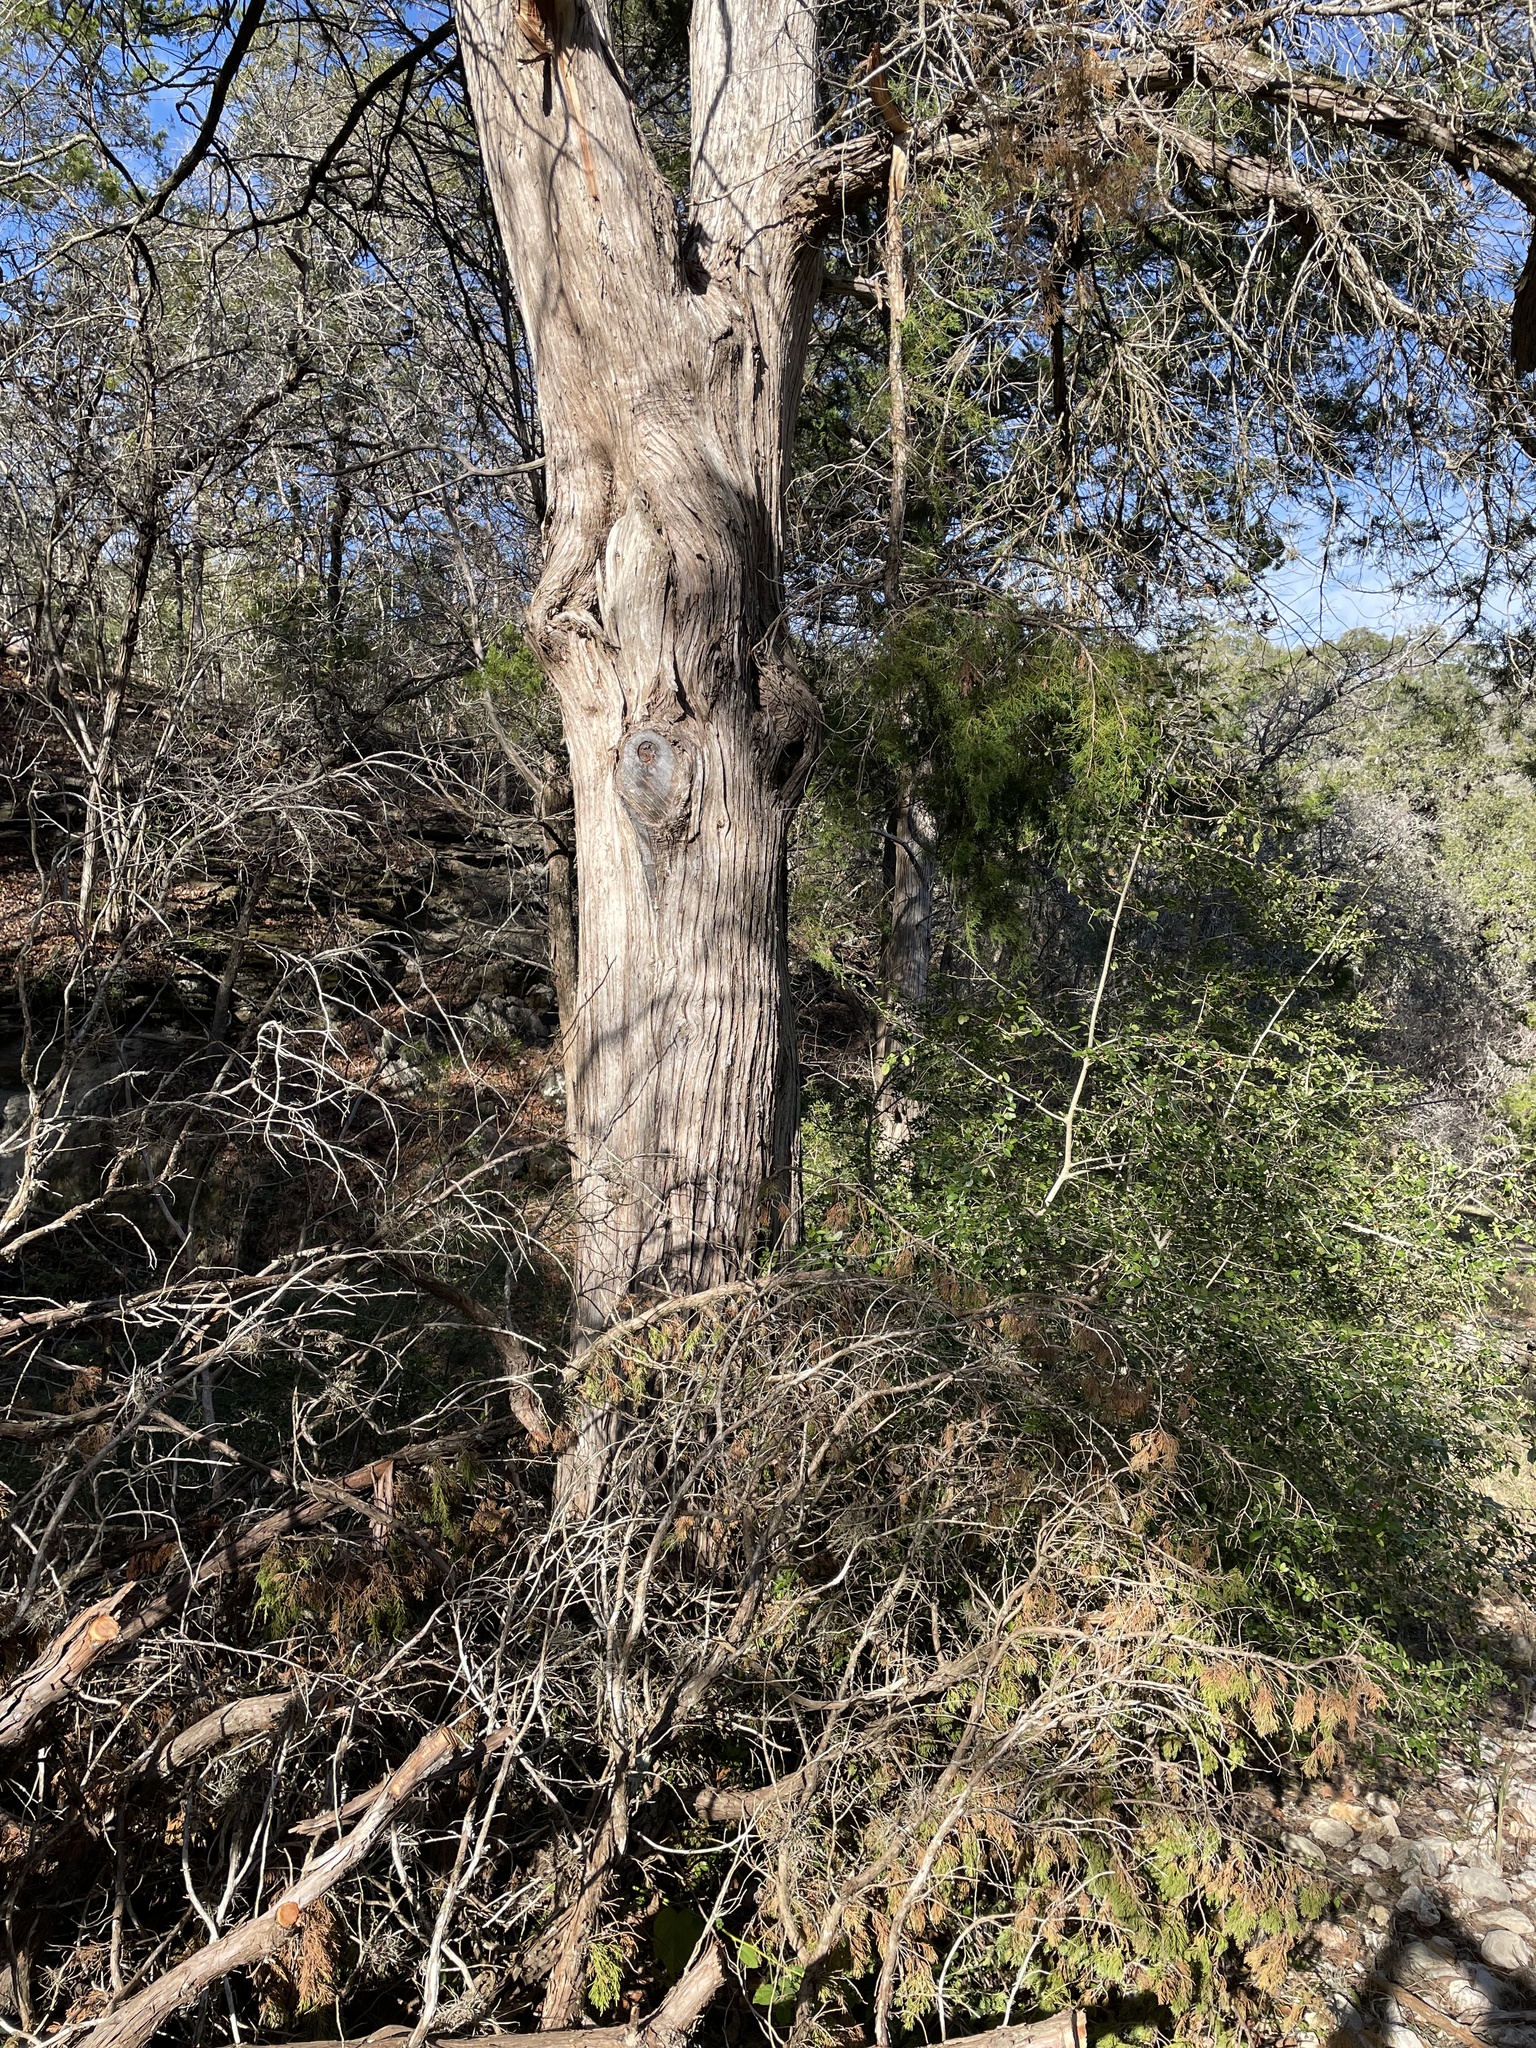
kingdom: Plantae
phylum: Tracheophyta
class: Pinopsida
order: Pinales
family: Cupressaceae
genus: Juniperus
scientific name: Juniperus virginiana
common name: Red juniper
